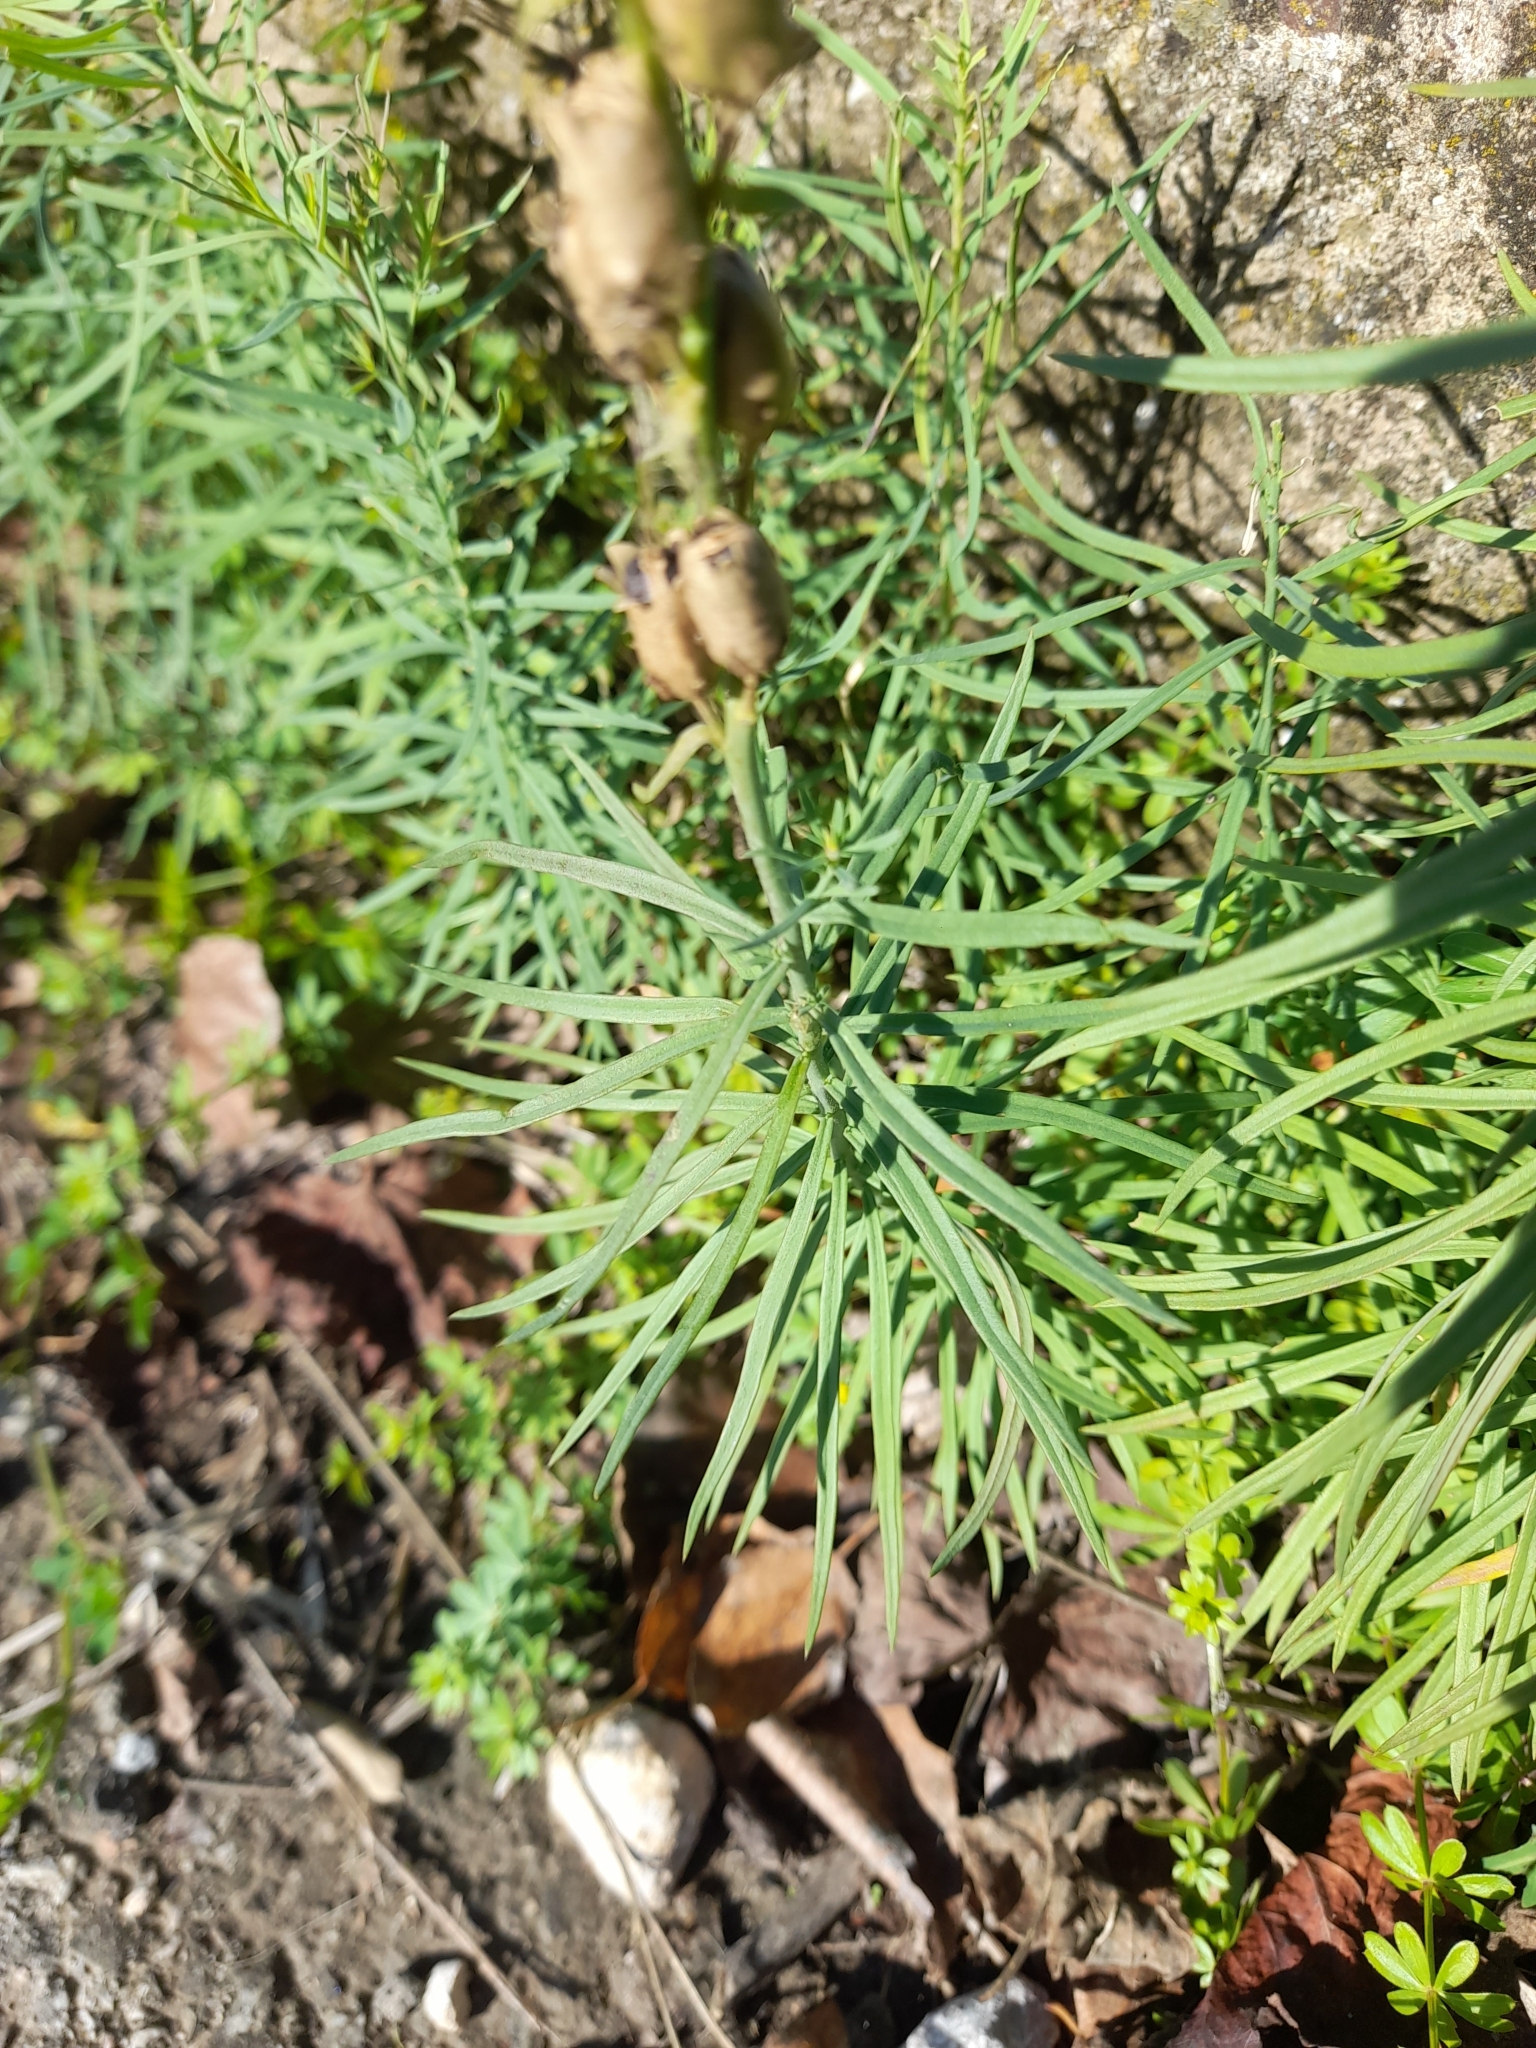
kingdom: Plantae
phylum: Tracheophyta
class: Magnoliopsida
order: Lamiales
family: Plantaginaceae
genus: Linaria
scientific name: Linaria vulgaris
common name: Butter and eggs
